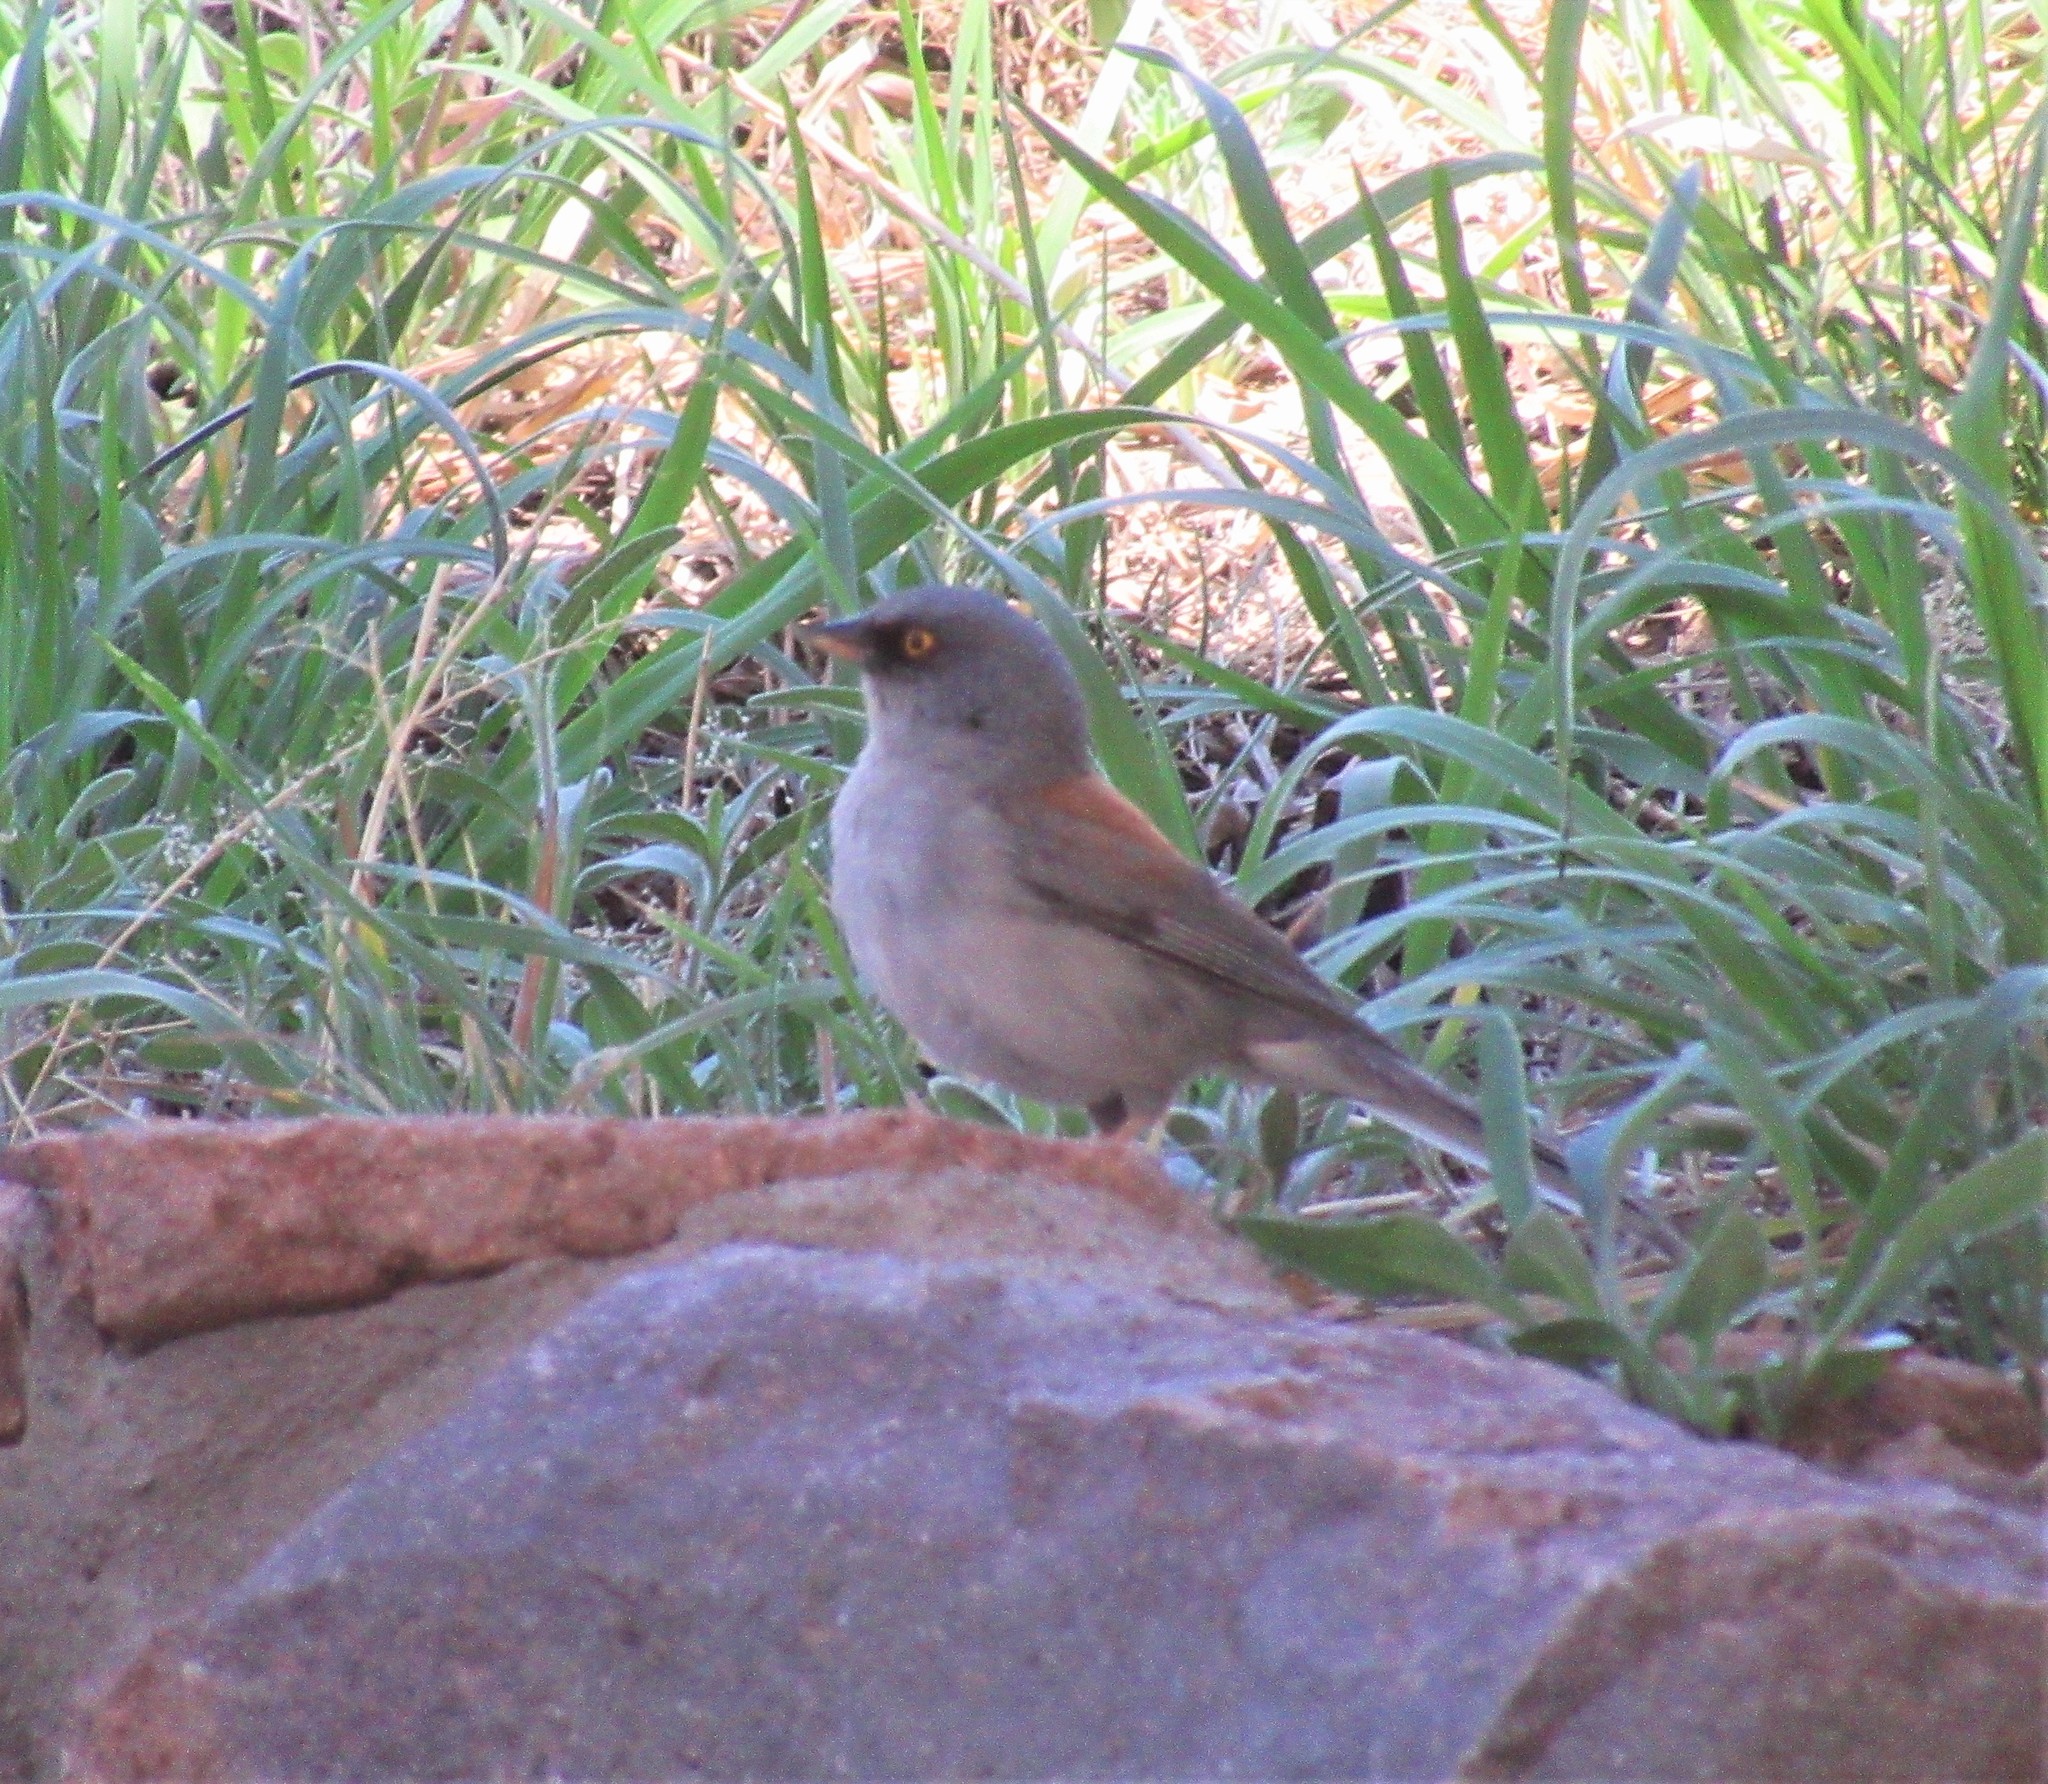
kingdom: Animalia
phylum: Chordata
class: Aves
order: Passeriformes
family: Passerellidae
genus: Junco
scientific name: Junco phaeonotus
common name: Yellow-eyed junco
